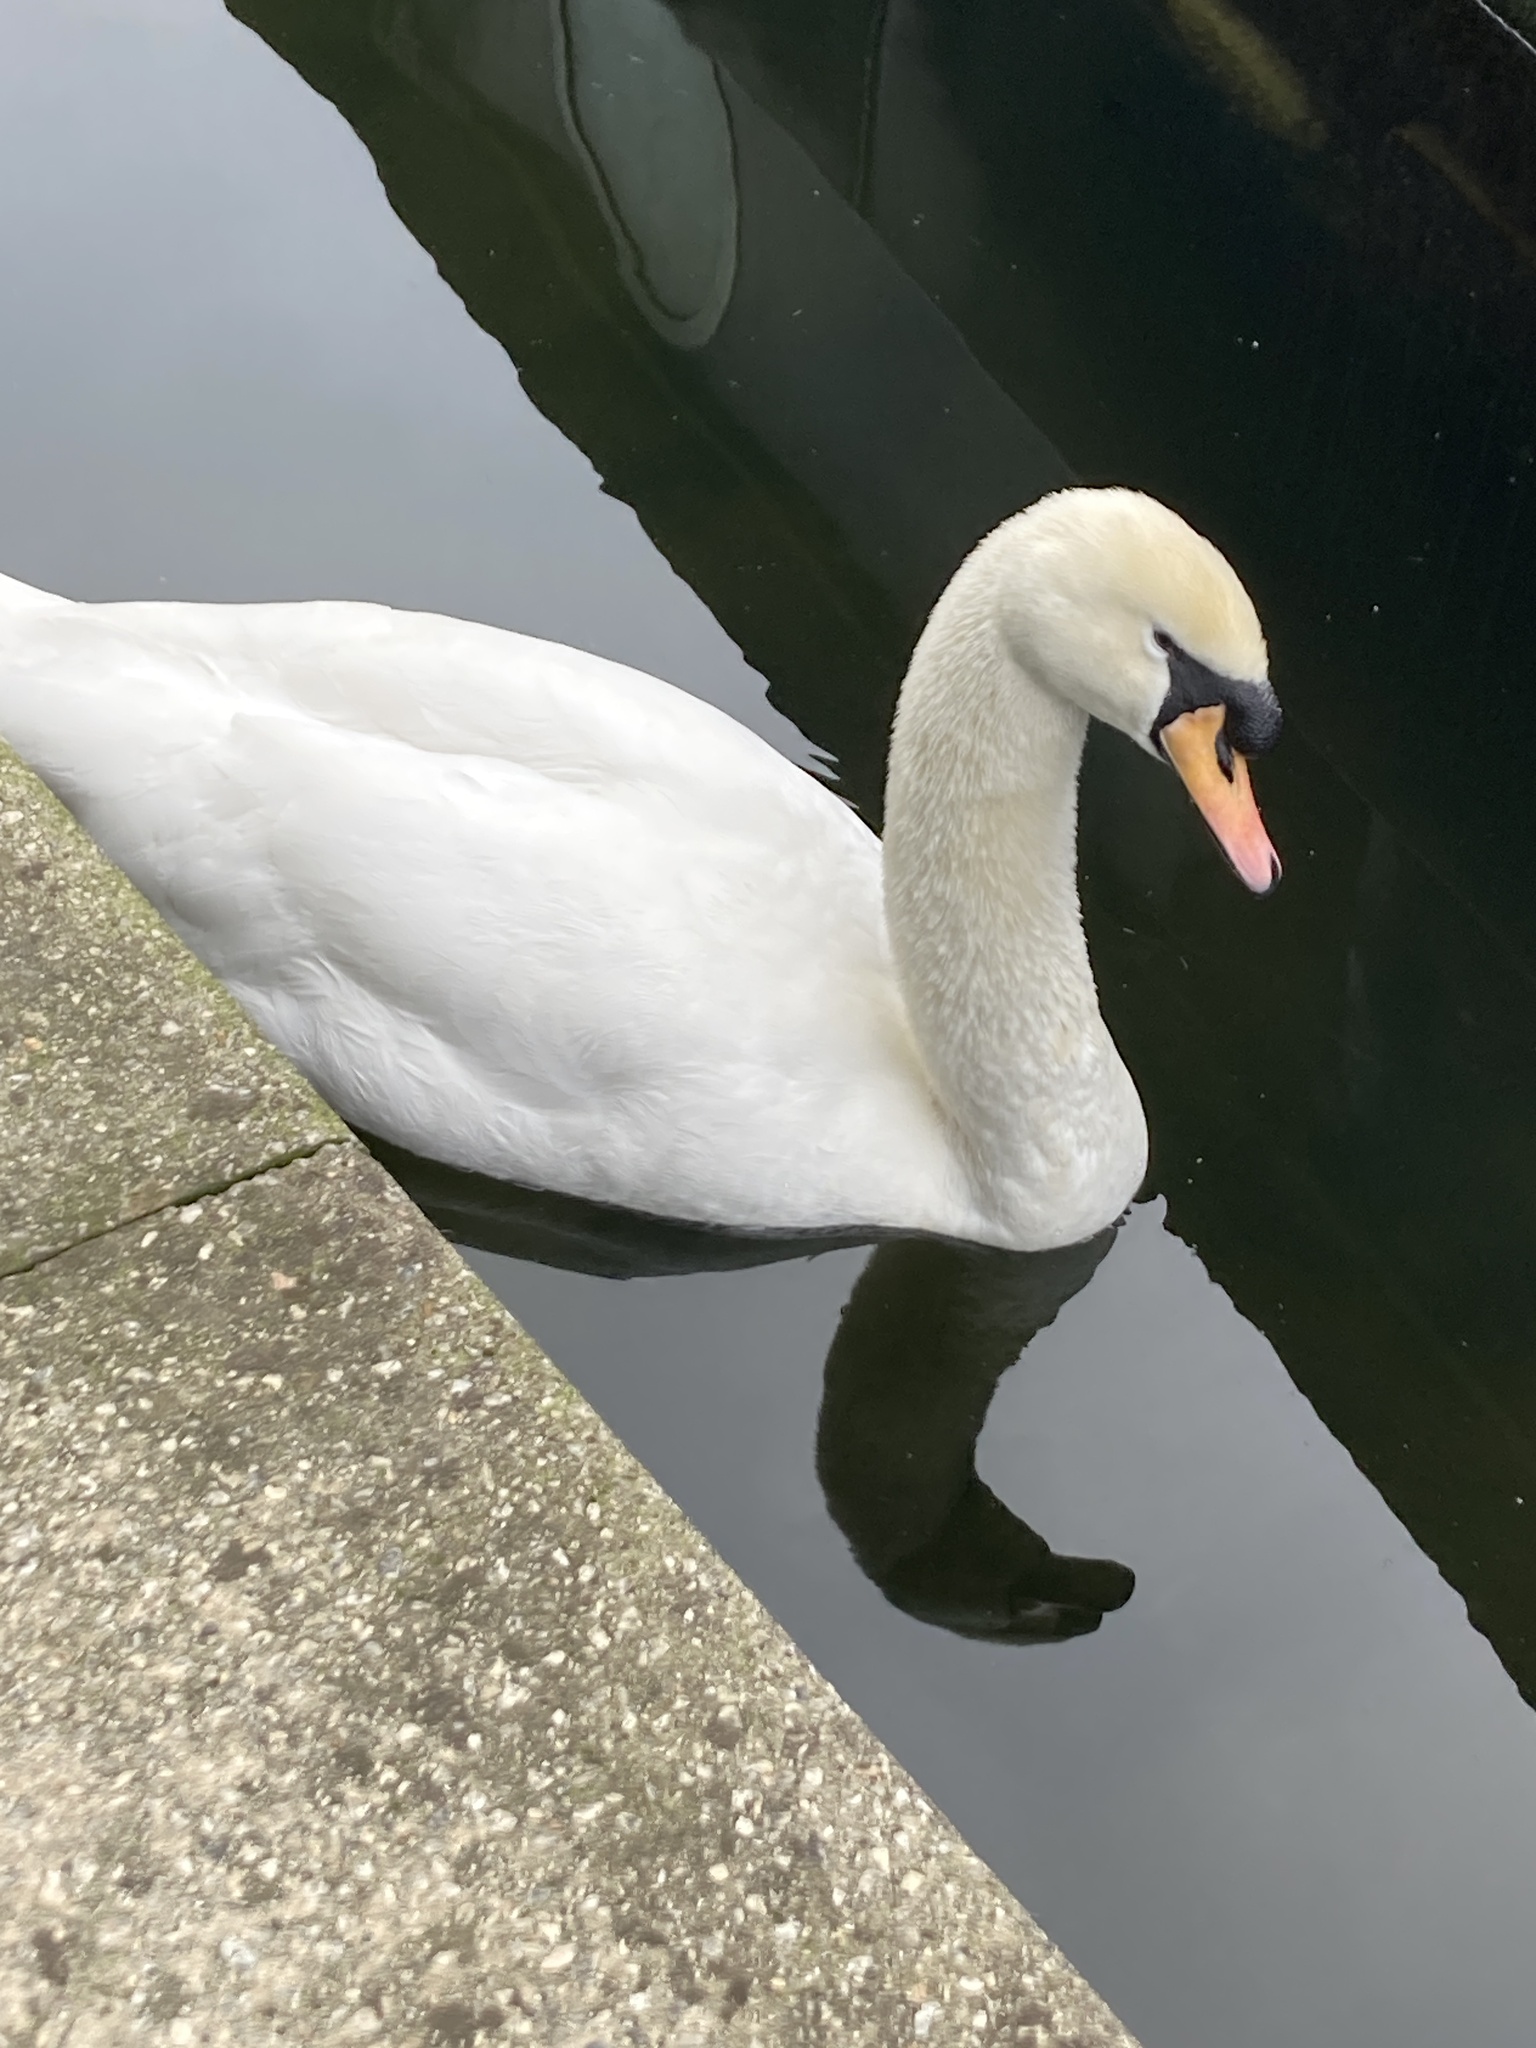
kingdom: Animalia
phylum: Chordata
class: Aves
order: Anseriformes
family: Anatidae
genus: Cygnus
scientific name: Cygnus olor
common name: Mute swan
